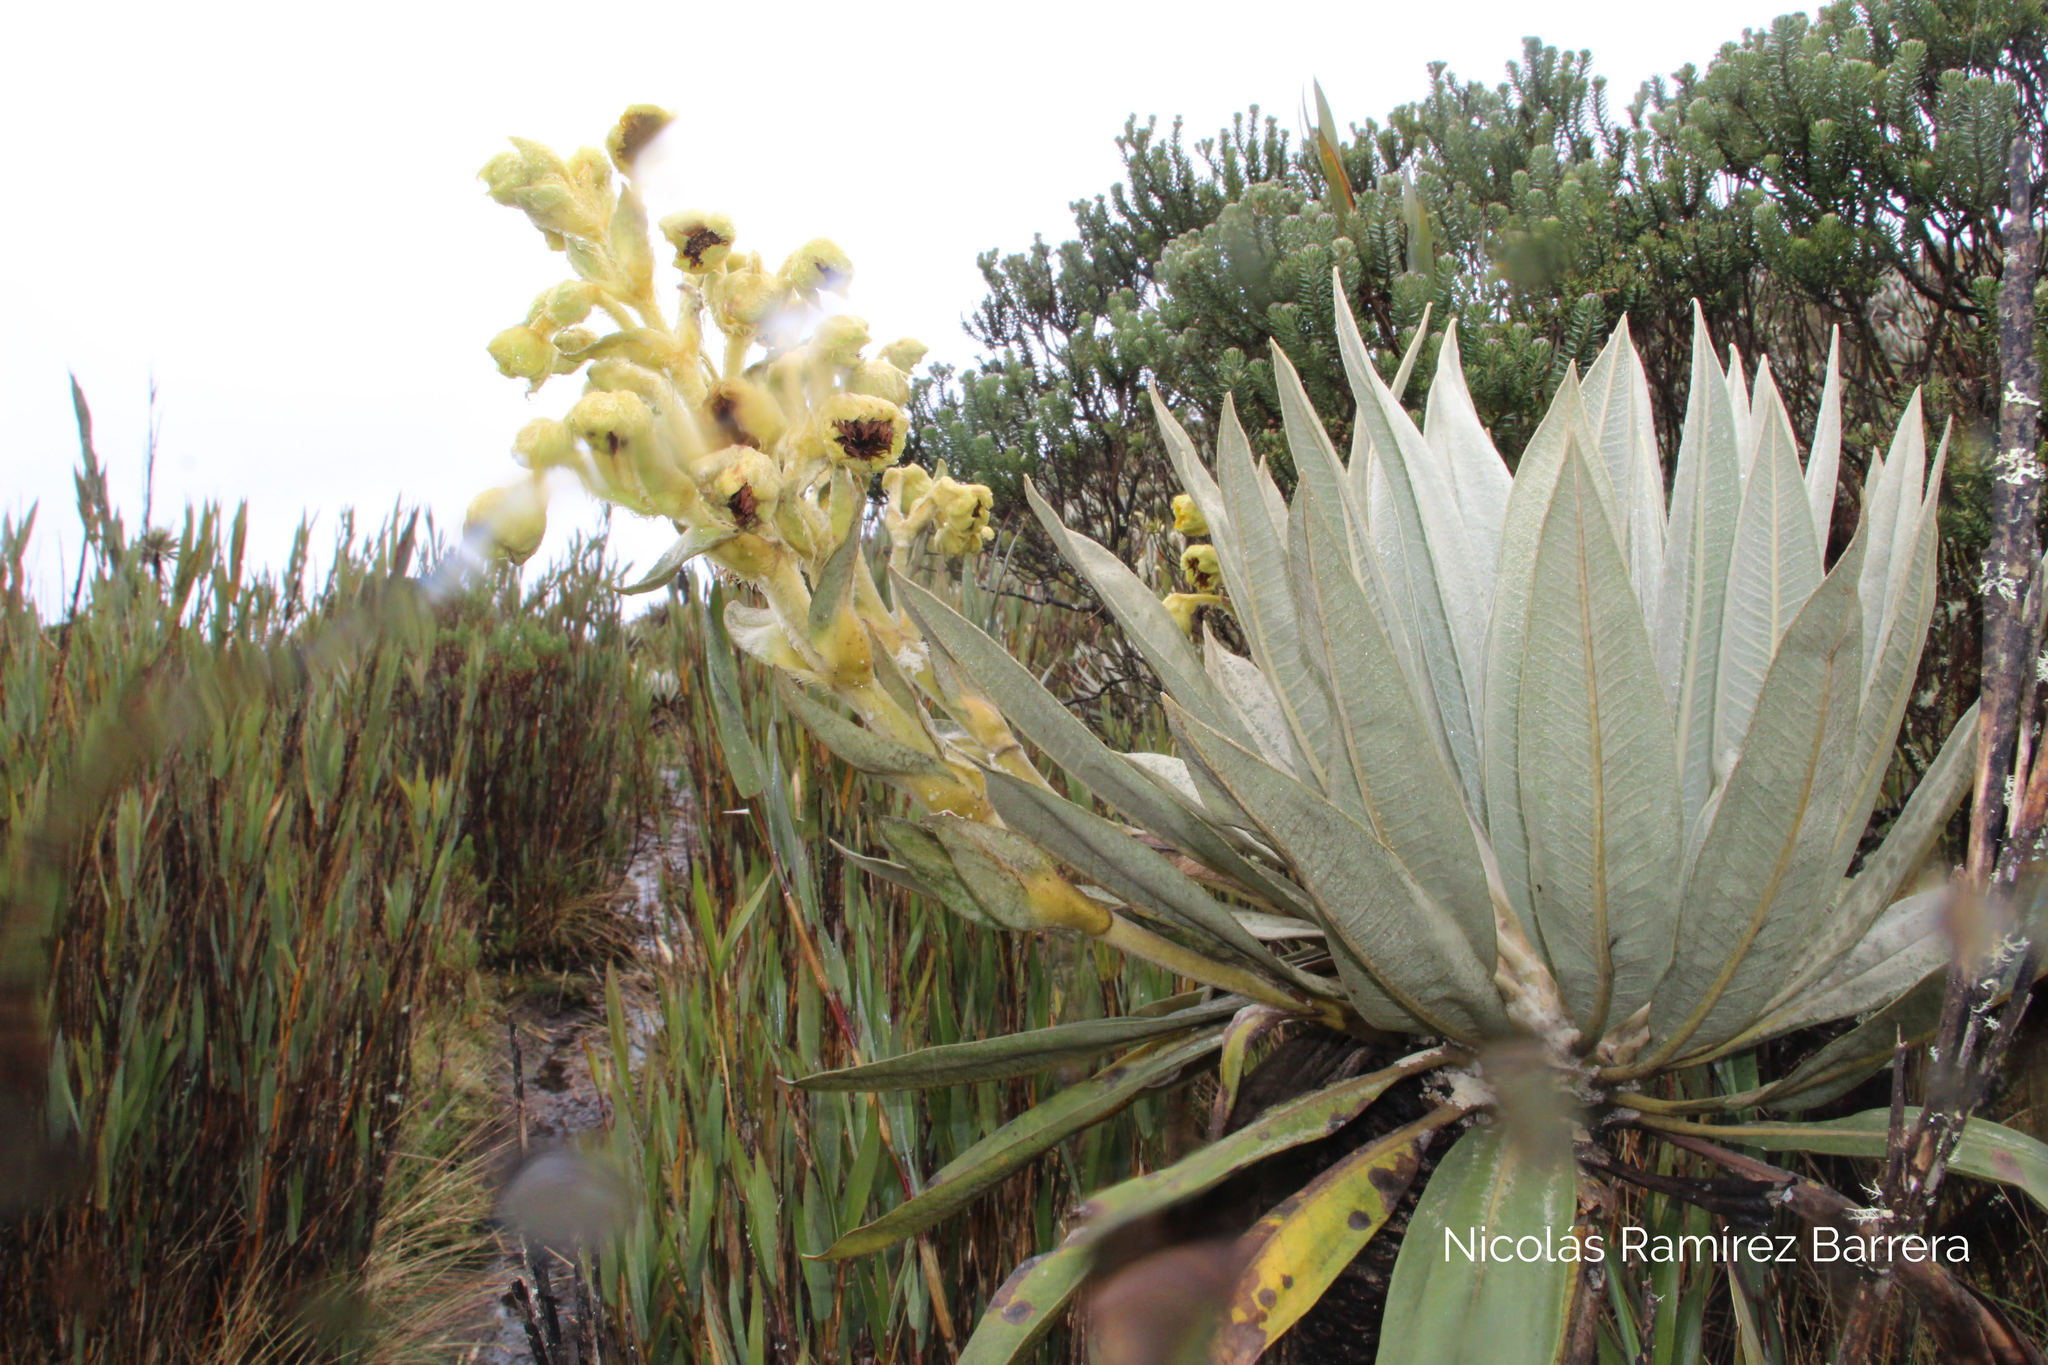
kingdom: Plantae
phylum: Tracheophyta
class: Magnoliopsida
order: Asterales
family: Asteraceae
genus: Espeletia
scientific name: Espeletia grandiflora
